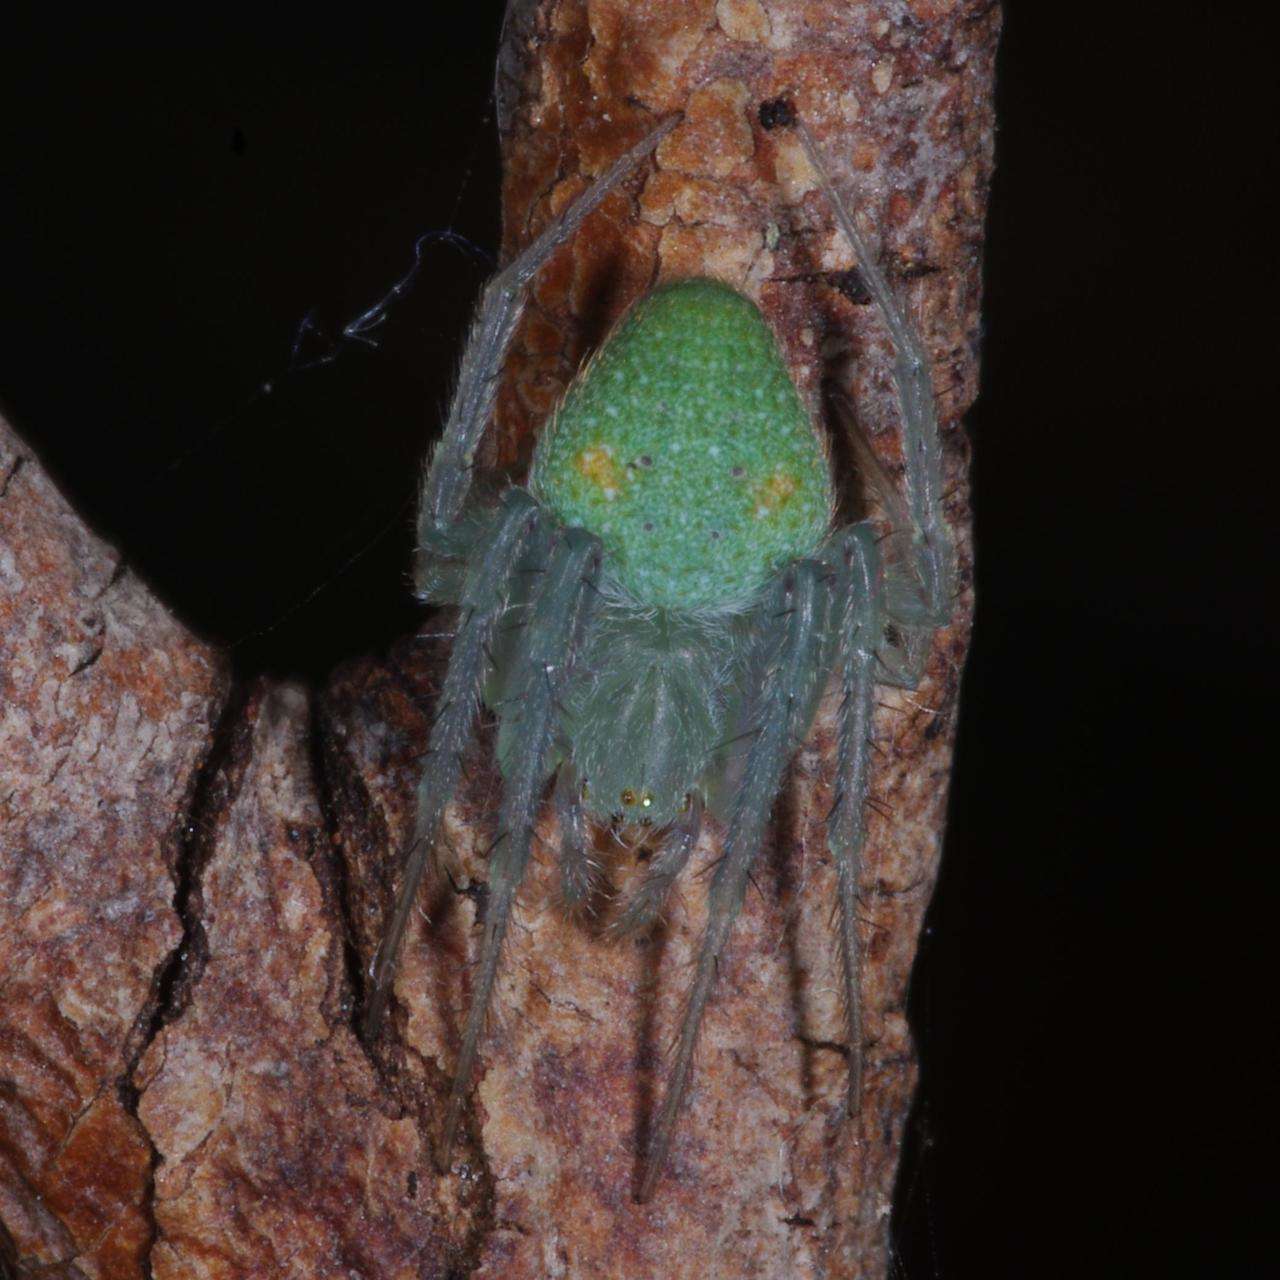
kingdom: Animalia
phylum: Arthropoda
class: Arachnida
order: Araneae
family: Araneidae
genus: Araneus
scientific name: Araneus circulissparsus
